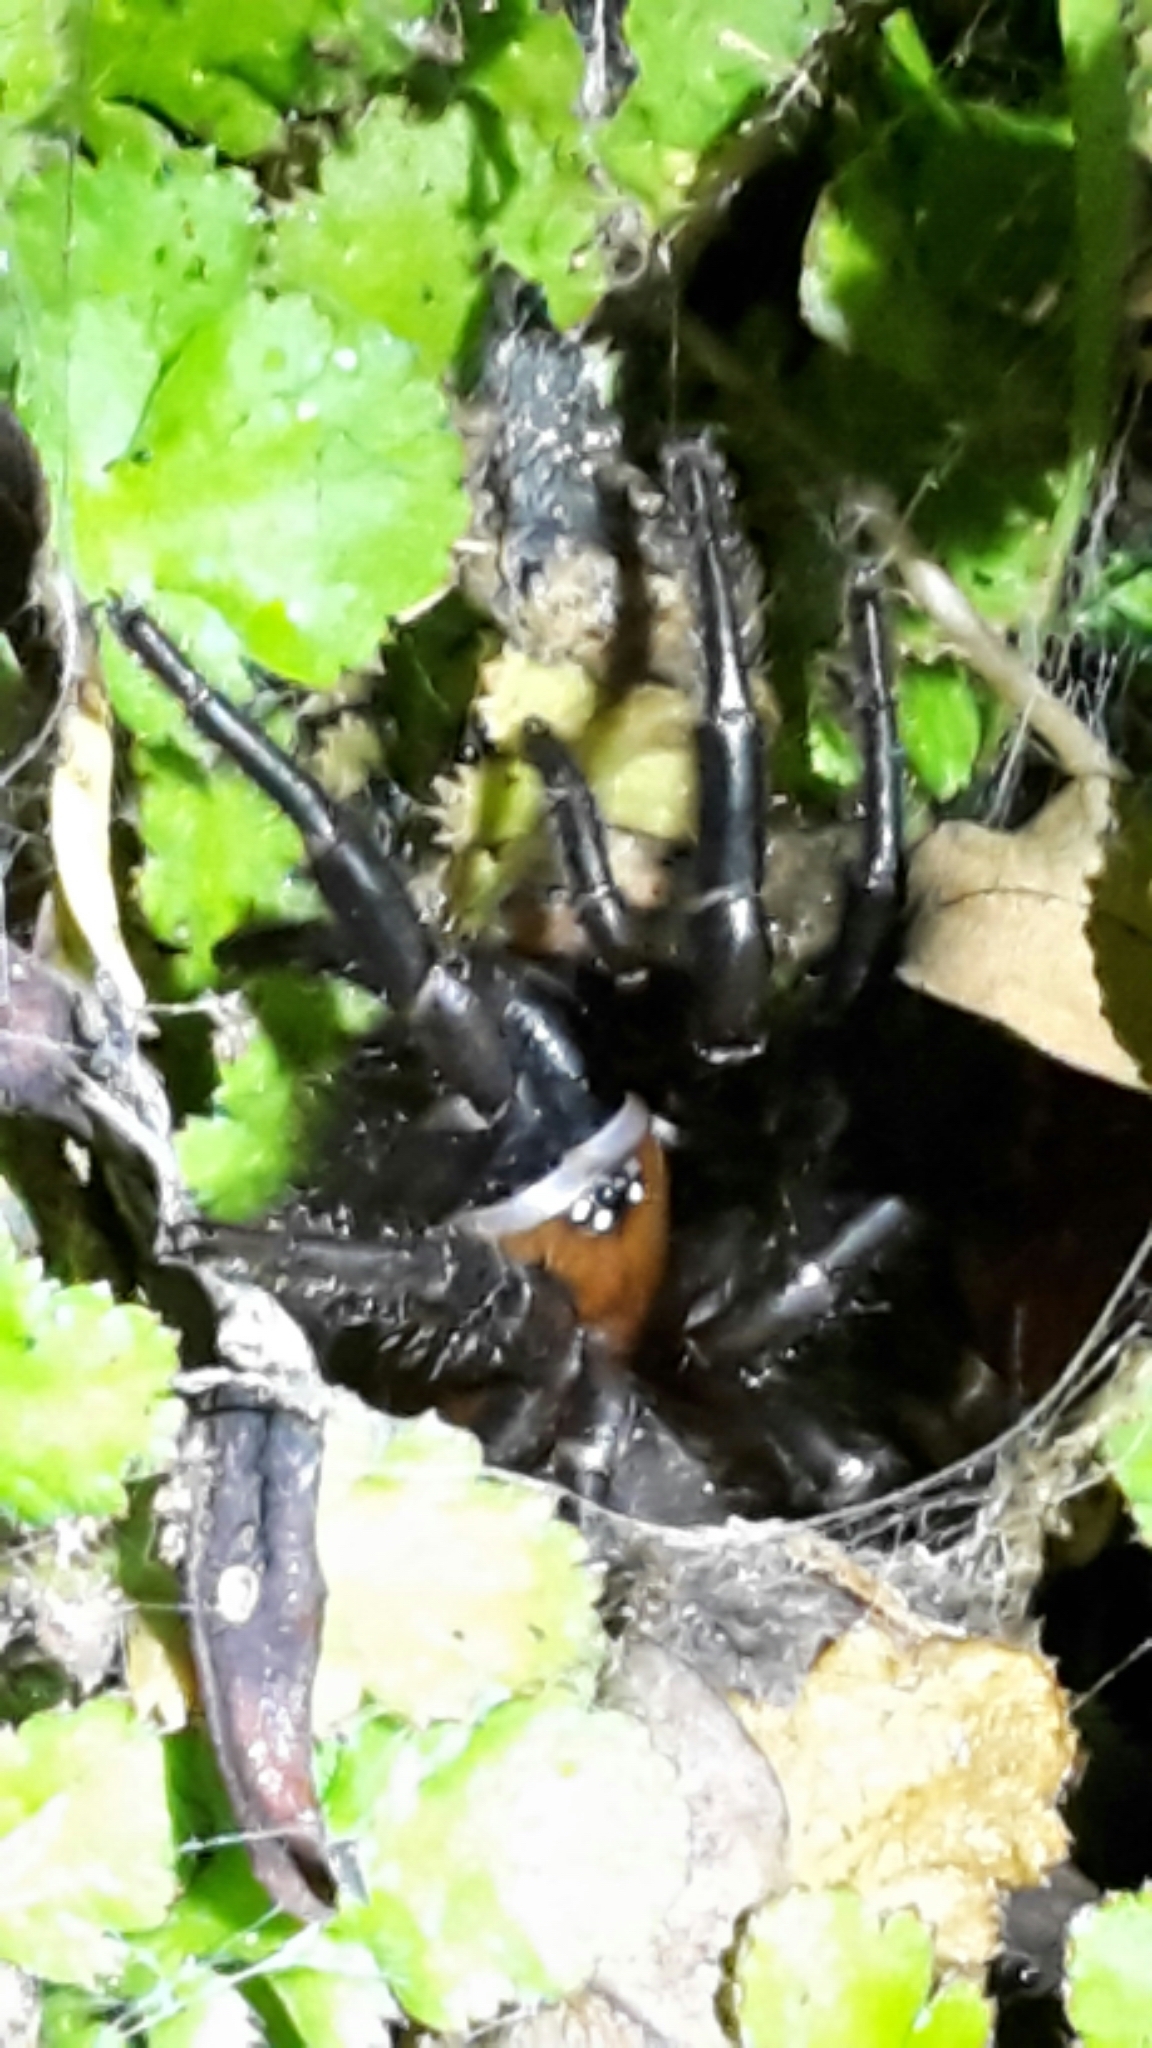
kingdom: Animalia
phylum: Arthropoda
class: Arachnida
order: Araneae
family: Porrhothelidae
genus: Porrhothele
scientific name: Porrhothele antipodiana
